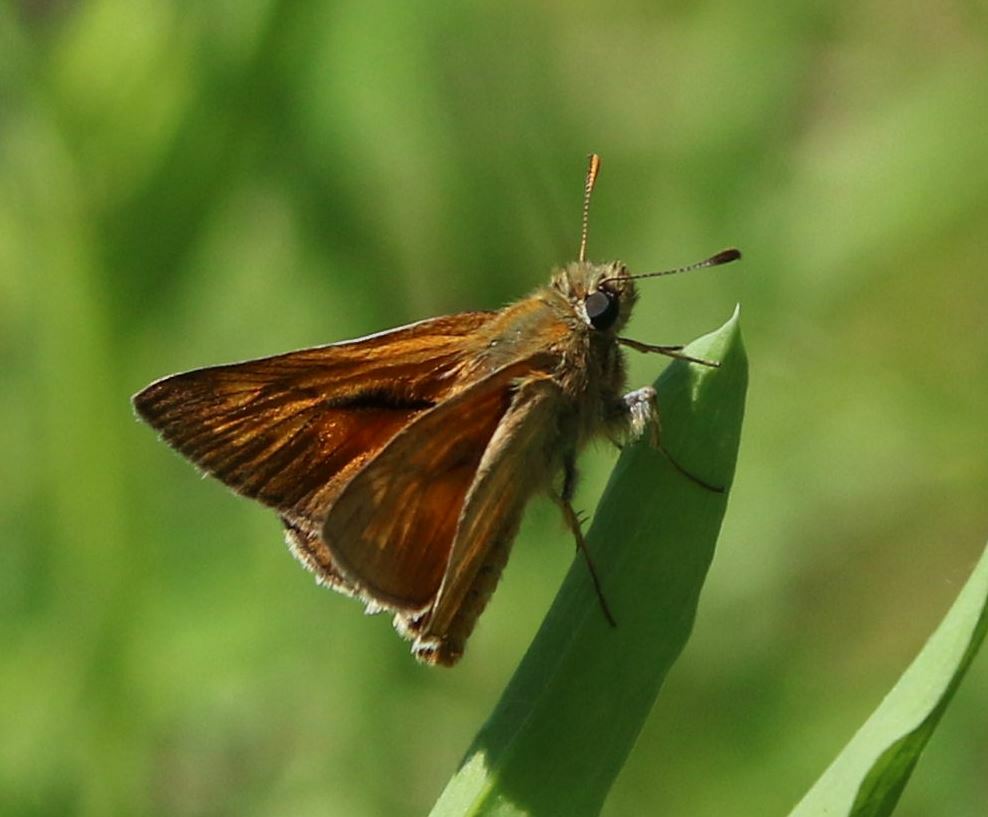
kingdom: Animalia
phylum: Arthropoda
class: Insecta
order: Lepidoptera
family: Hesperiidae
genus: Ochlodes
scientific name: Ochlodes venata
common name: Large skipper
